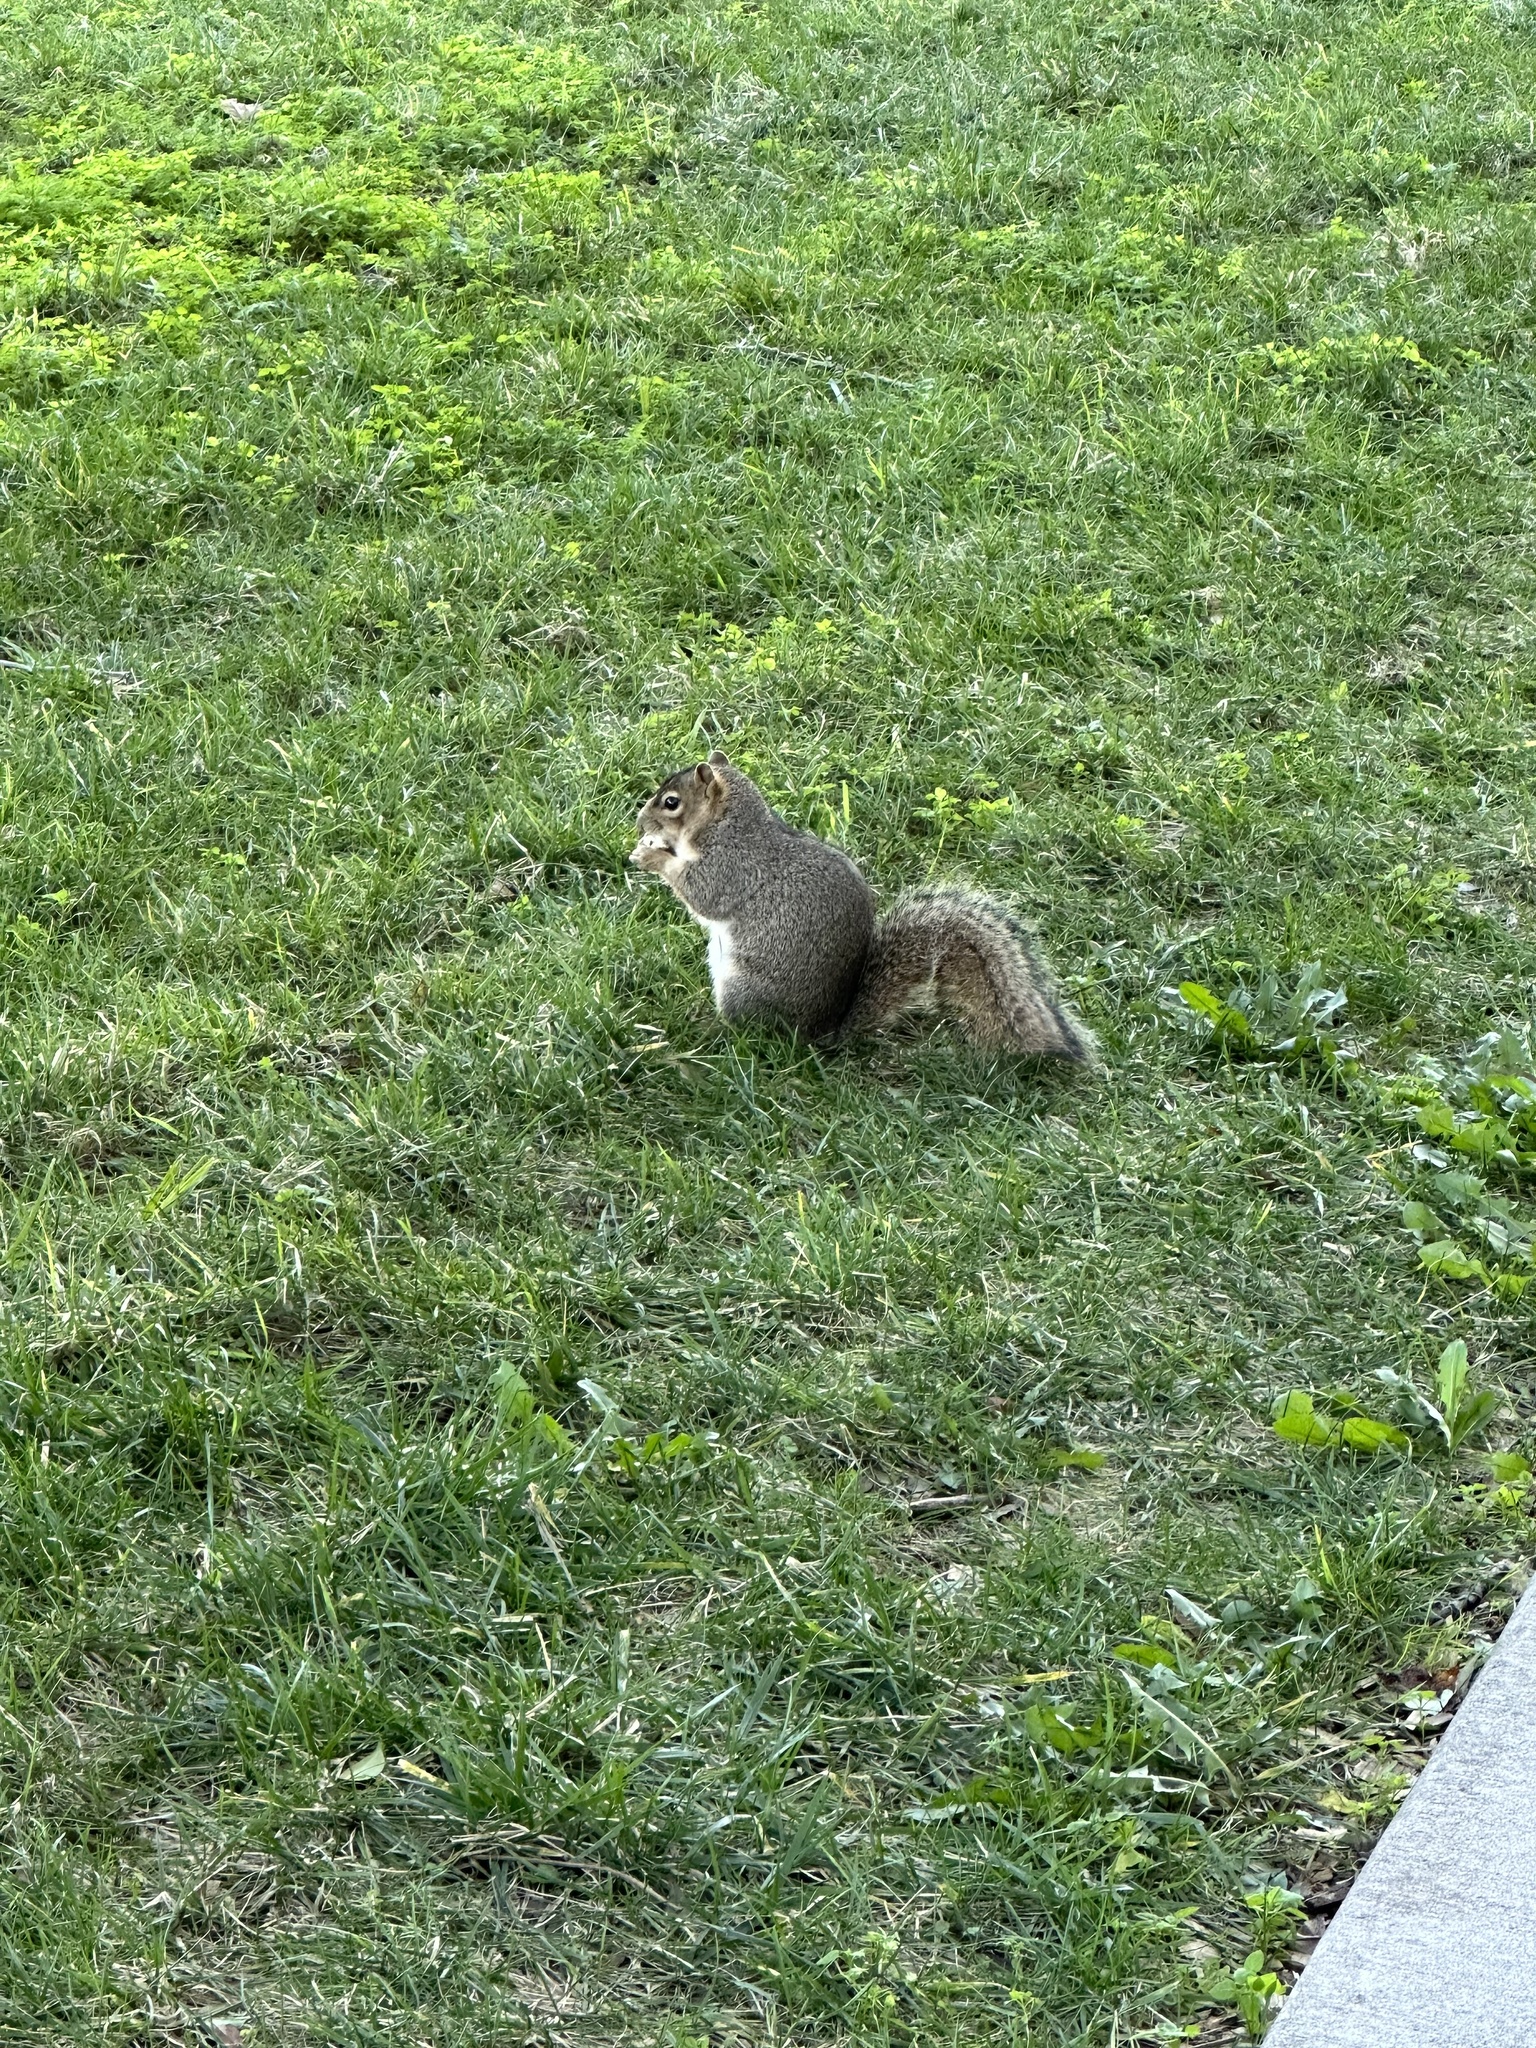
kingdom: Animalia
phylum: Chordata
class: Mammalia
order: Rodentia
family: Sciuridae
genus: Sciurus
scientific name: Sciurus niger
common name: Fox squirrel
